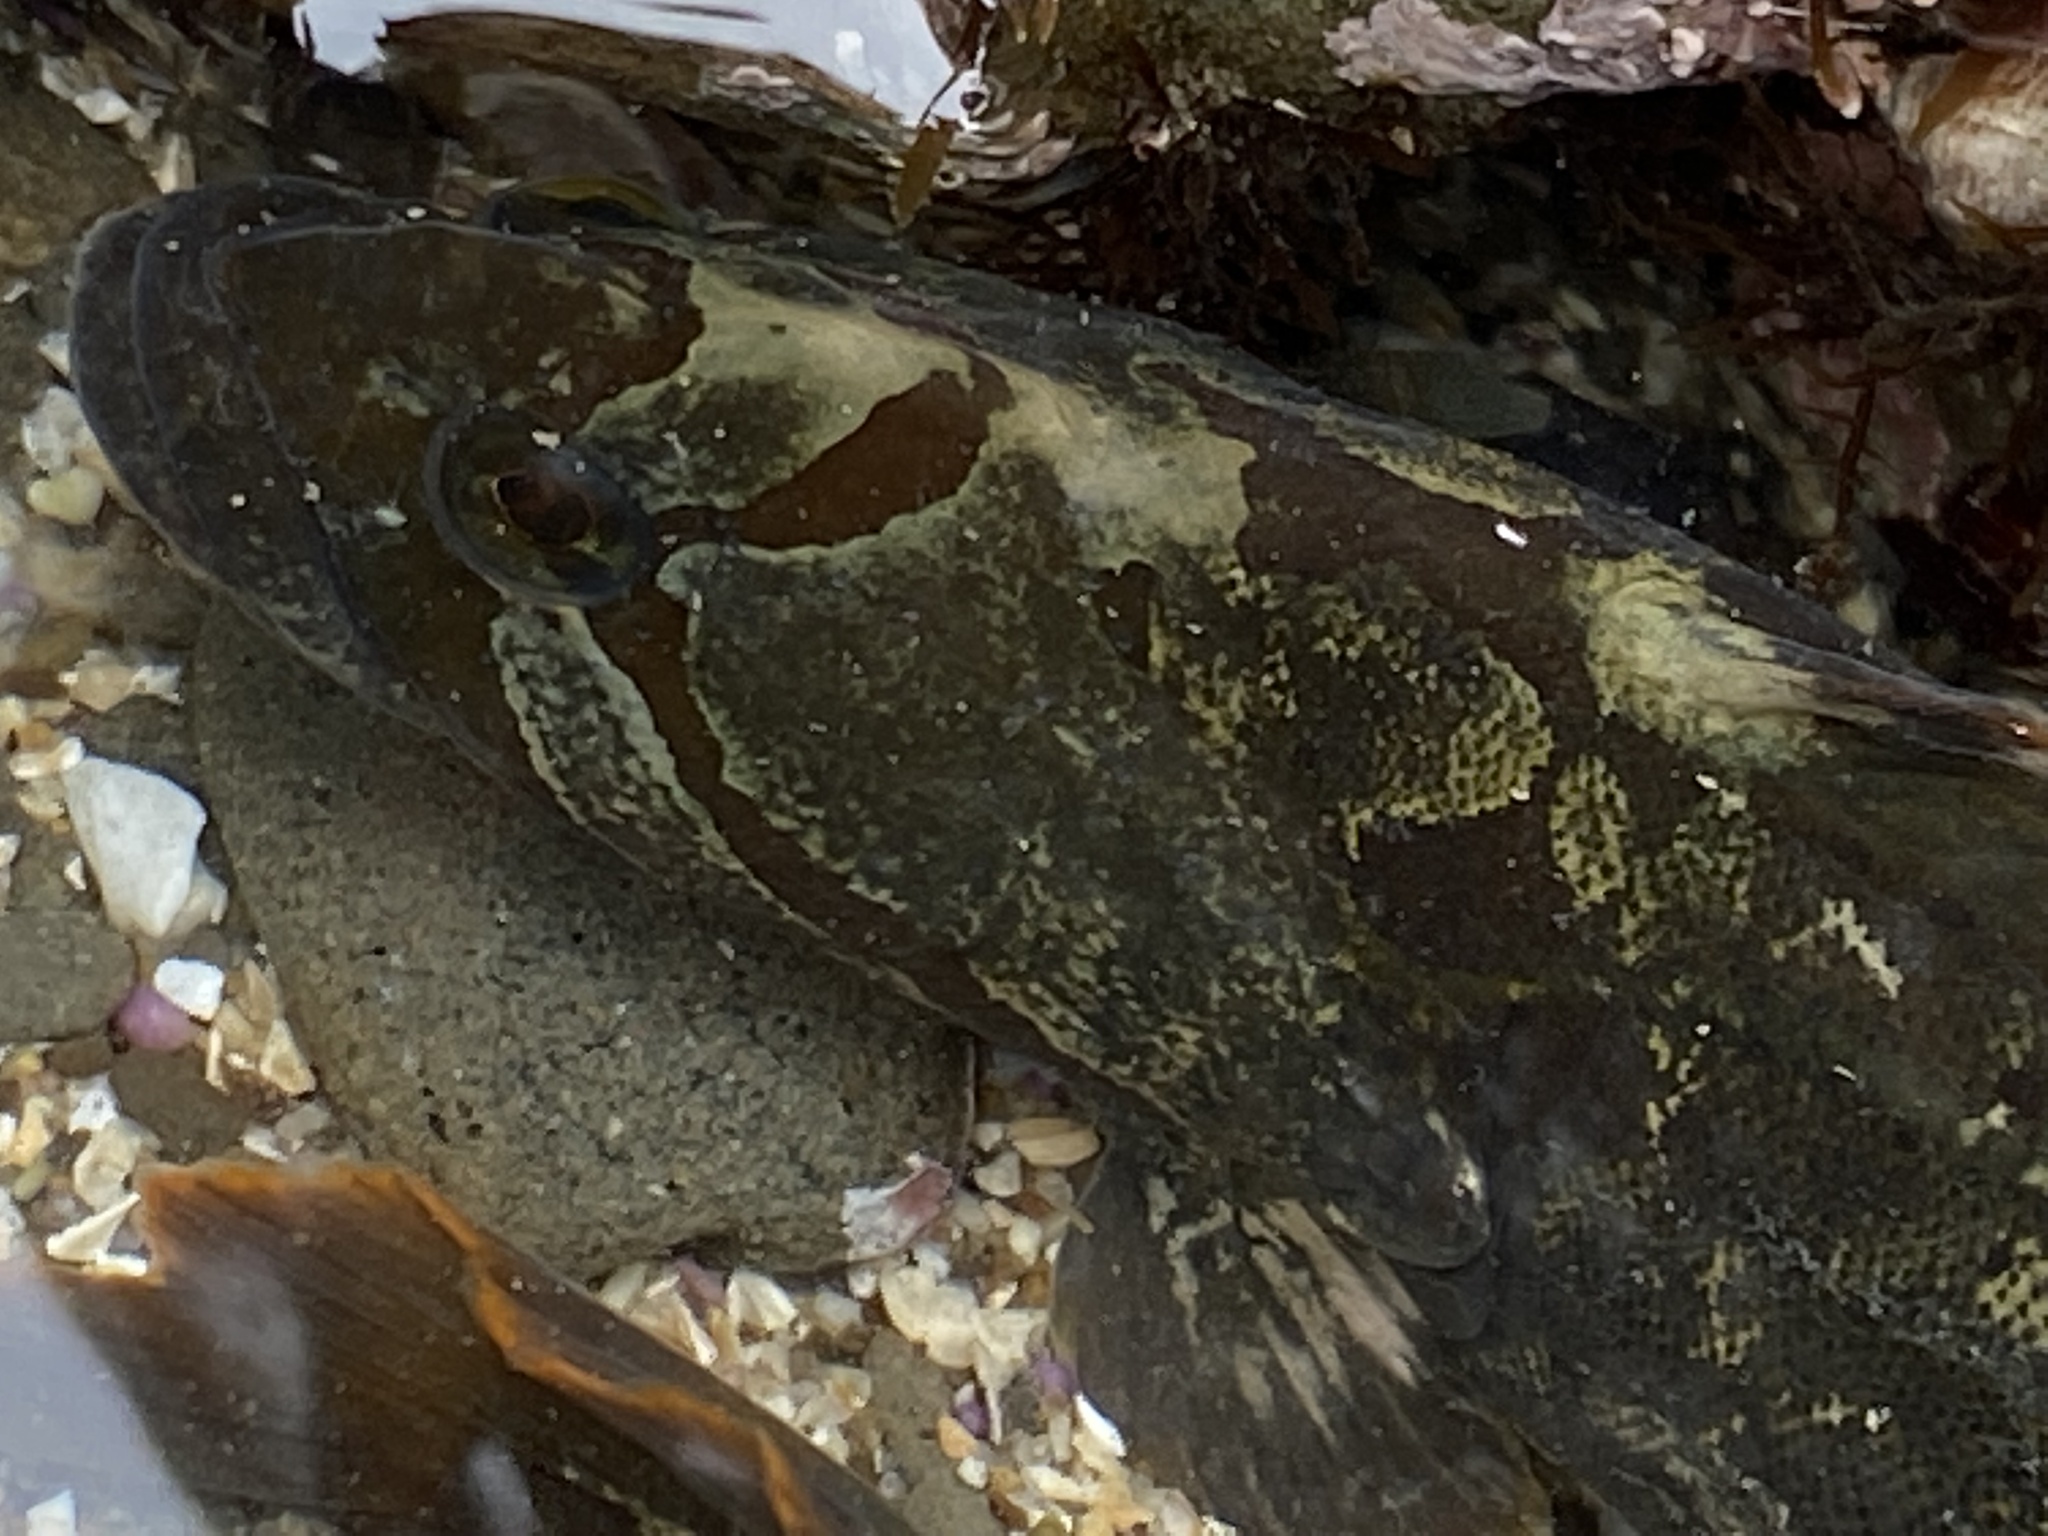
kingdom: Animalia
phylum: Chordata
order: Perciformes
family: Stichaeidae
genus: Cebidichthys
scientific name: Cebidichthys violaceus
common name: Monkeyface prickleback
